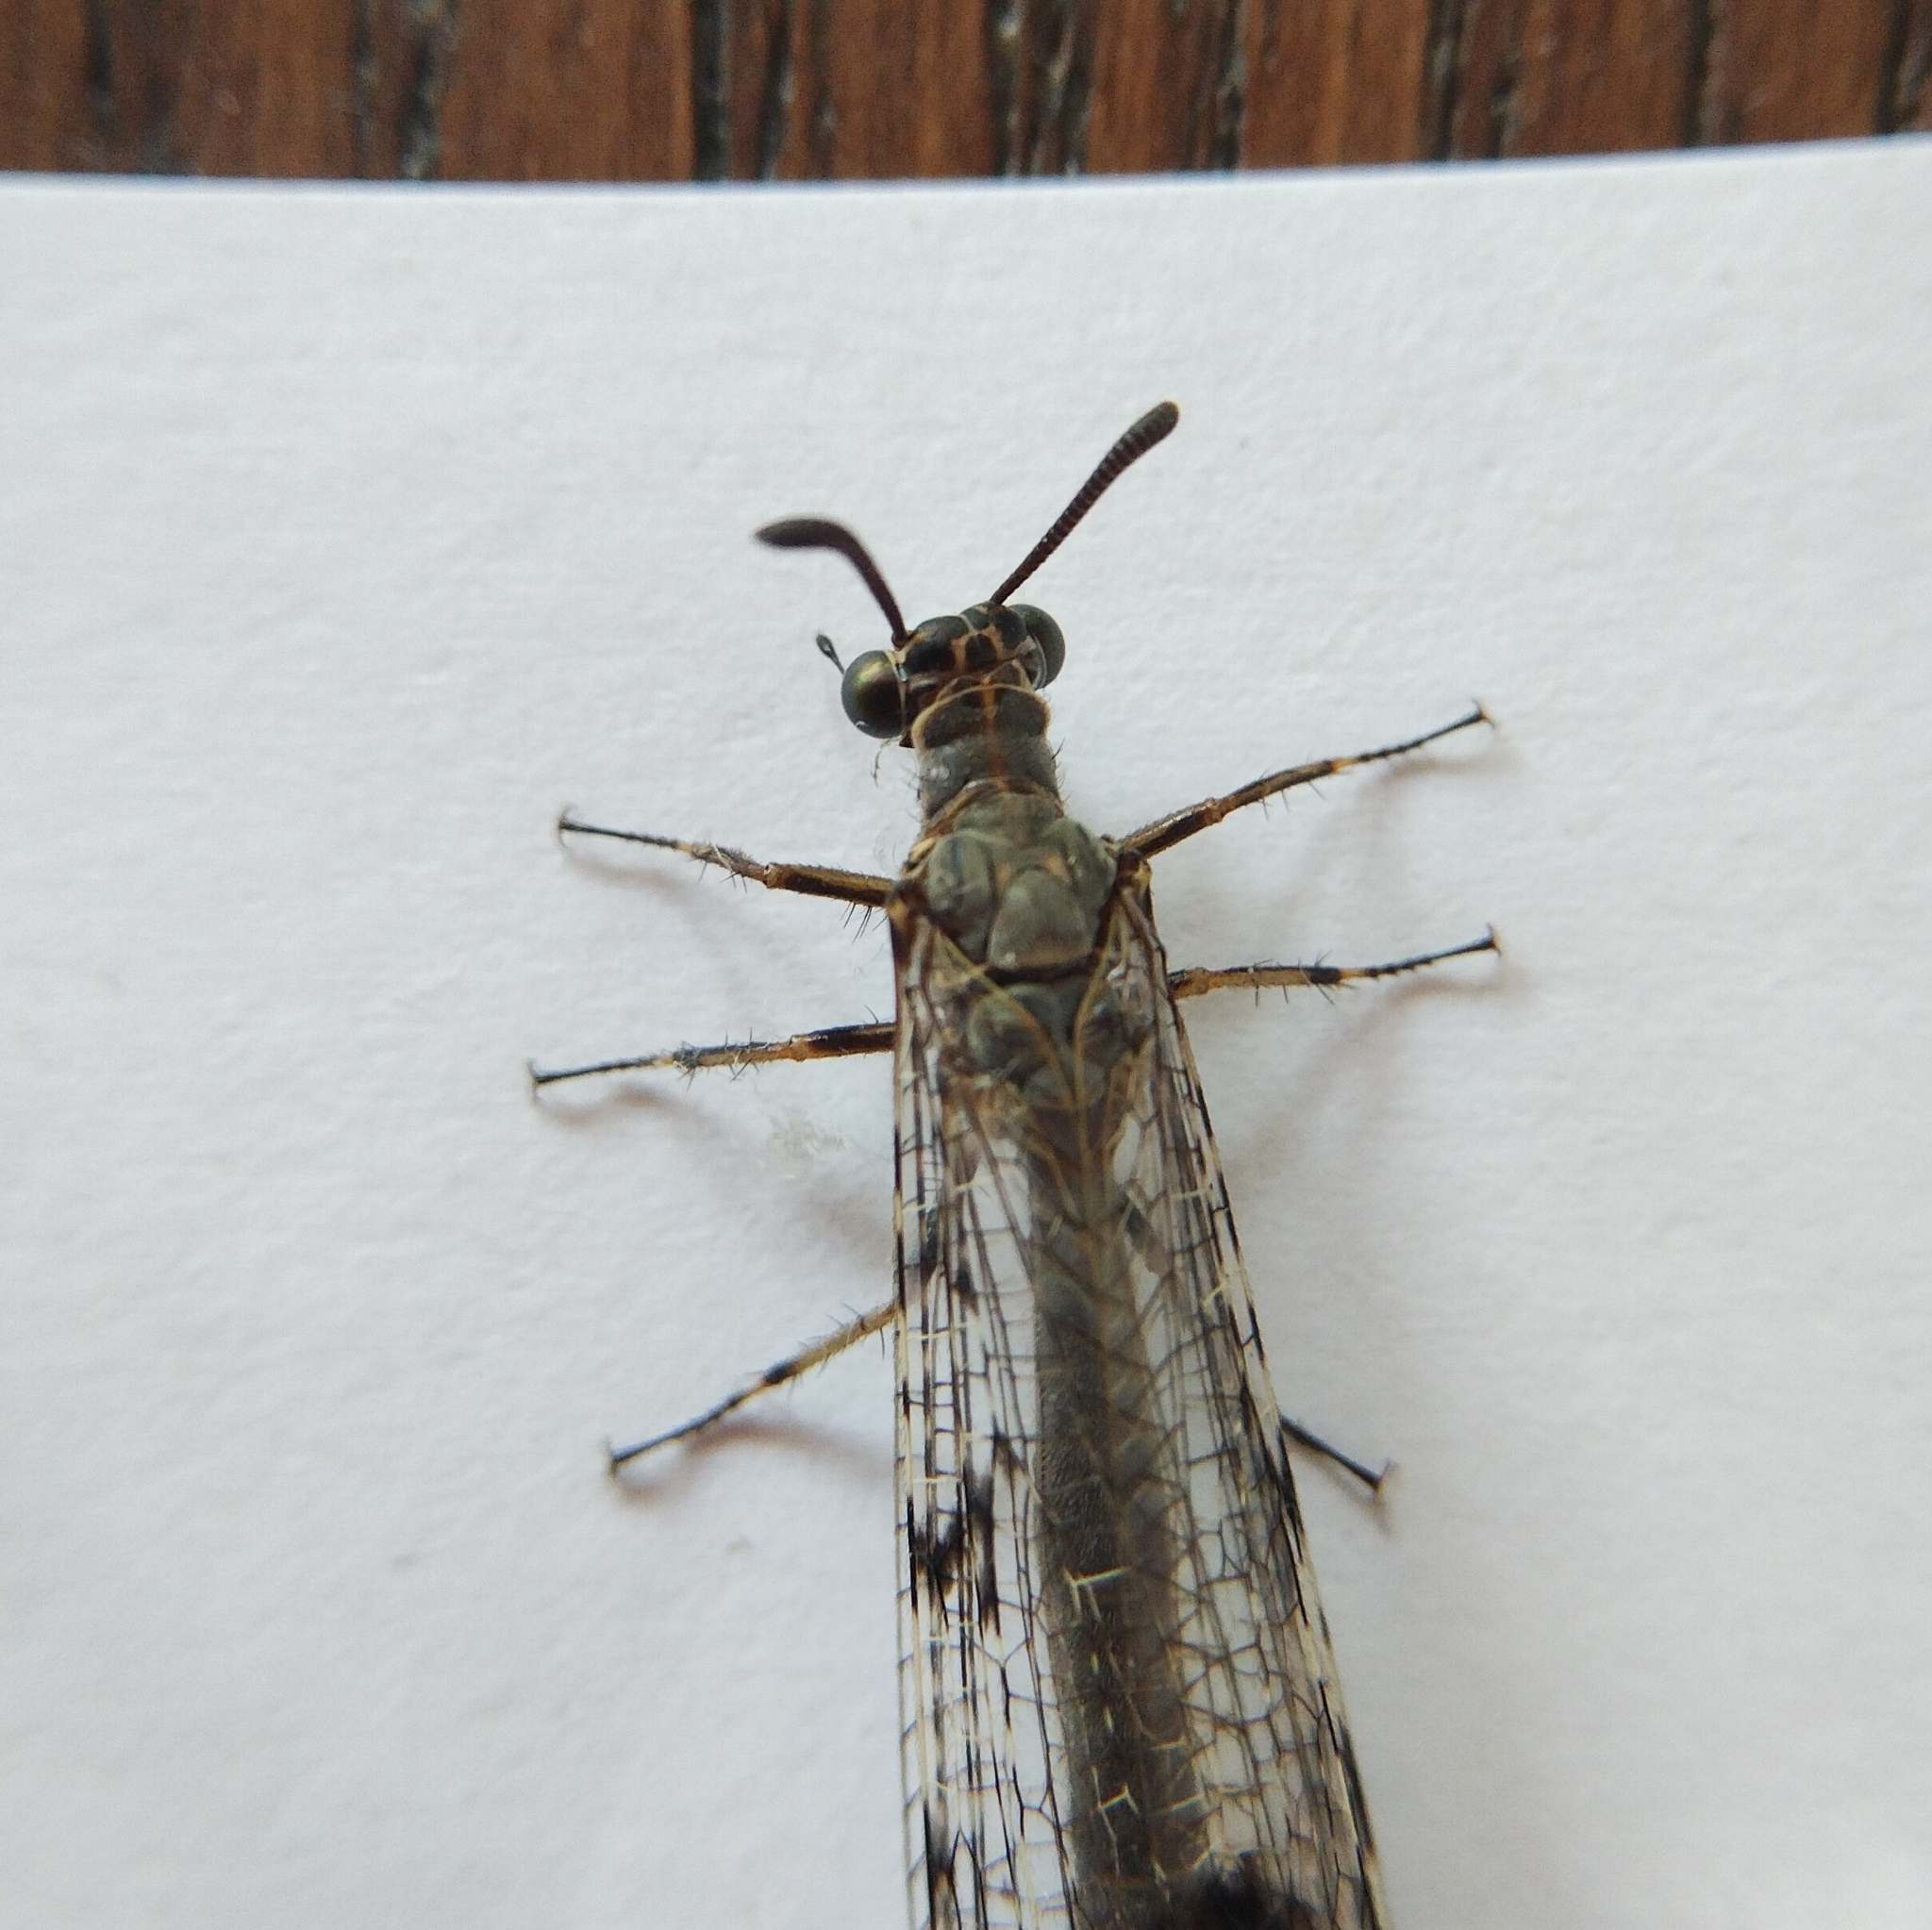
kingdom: Animalia
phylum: Arthropoda
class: Insecta
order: Neuroptera
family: Myrmeleontidae
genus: Euroleon
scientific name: Euroleon nostras
